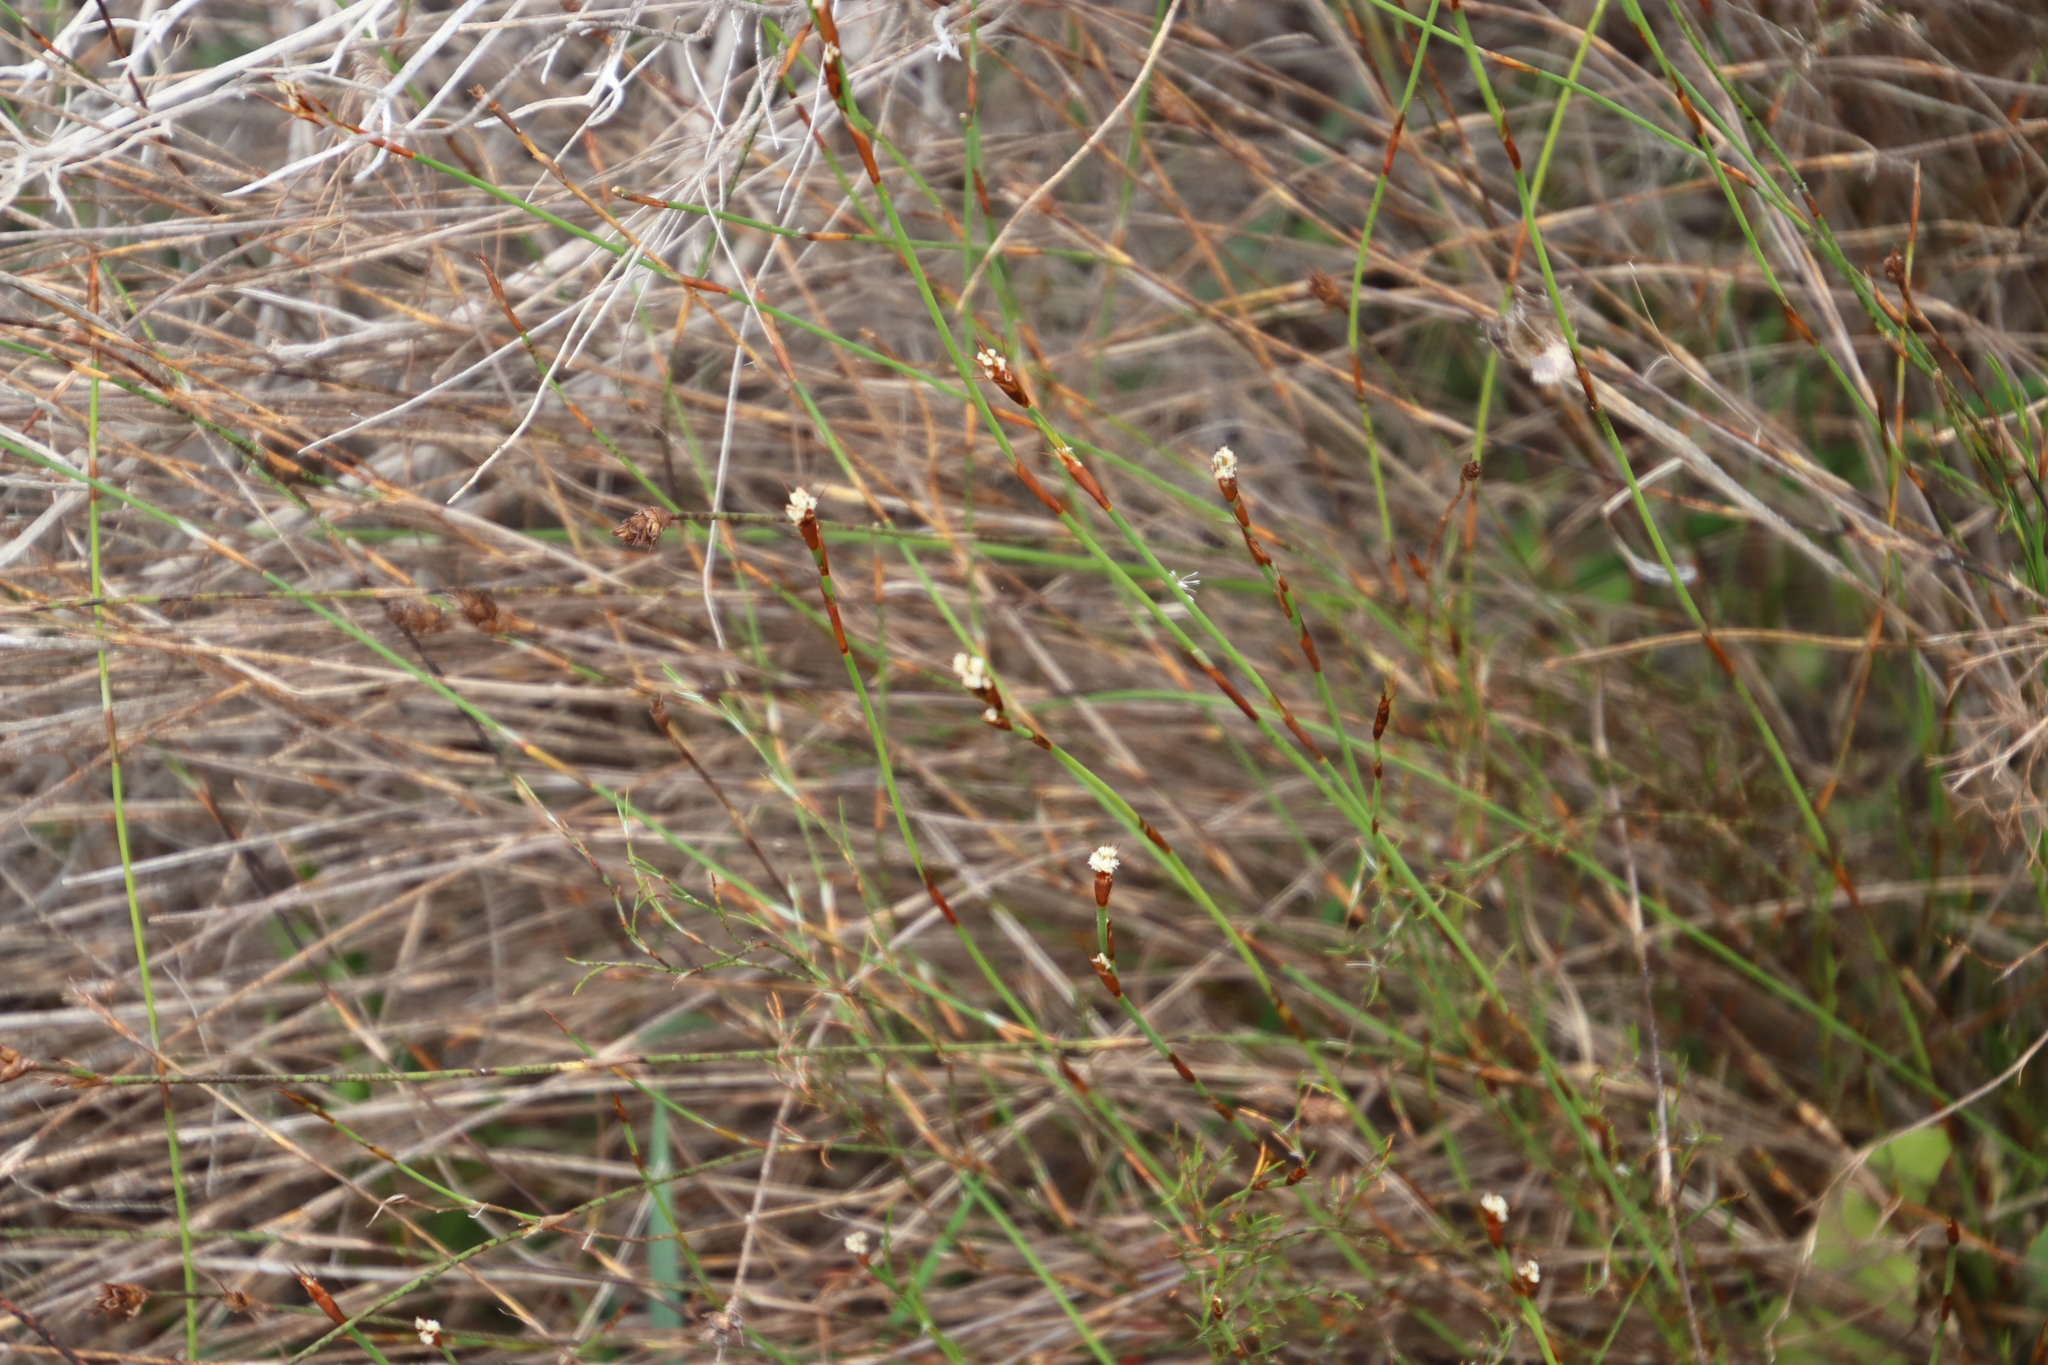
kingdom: Plantae
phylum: Tracheophyta
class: Liliopsida
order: Poales
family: Restionaceae
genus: Restio
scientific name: Restio capensis
